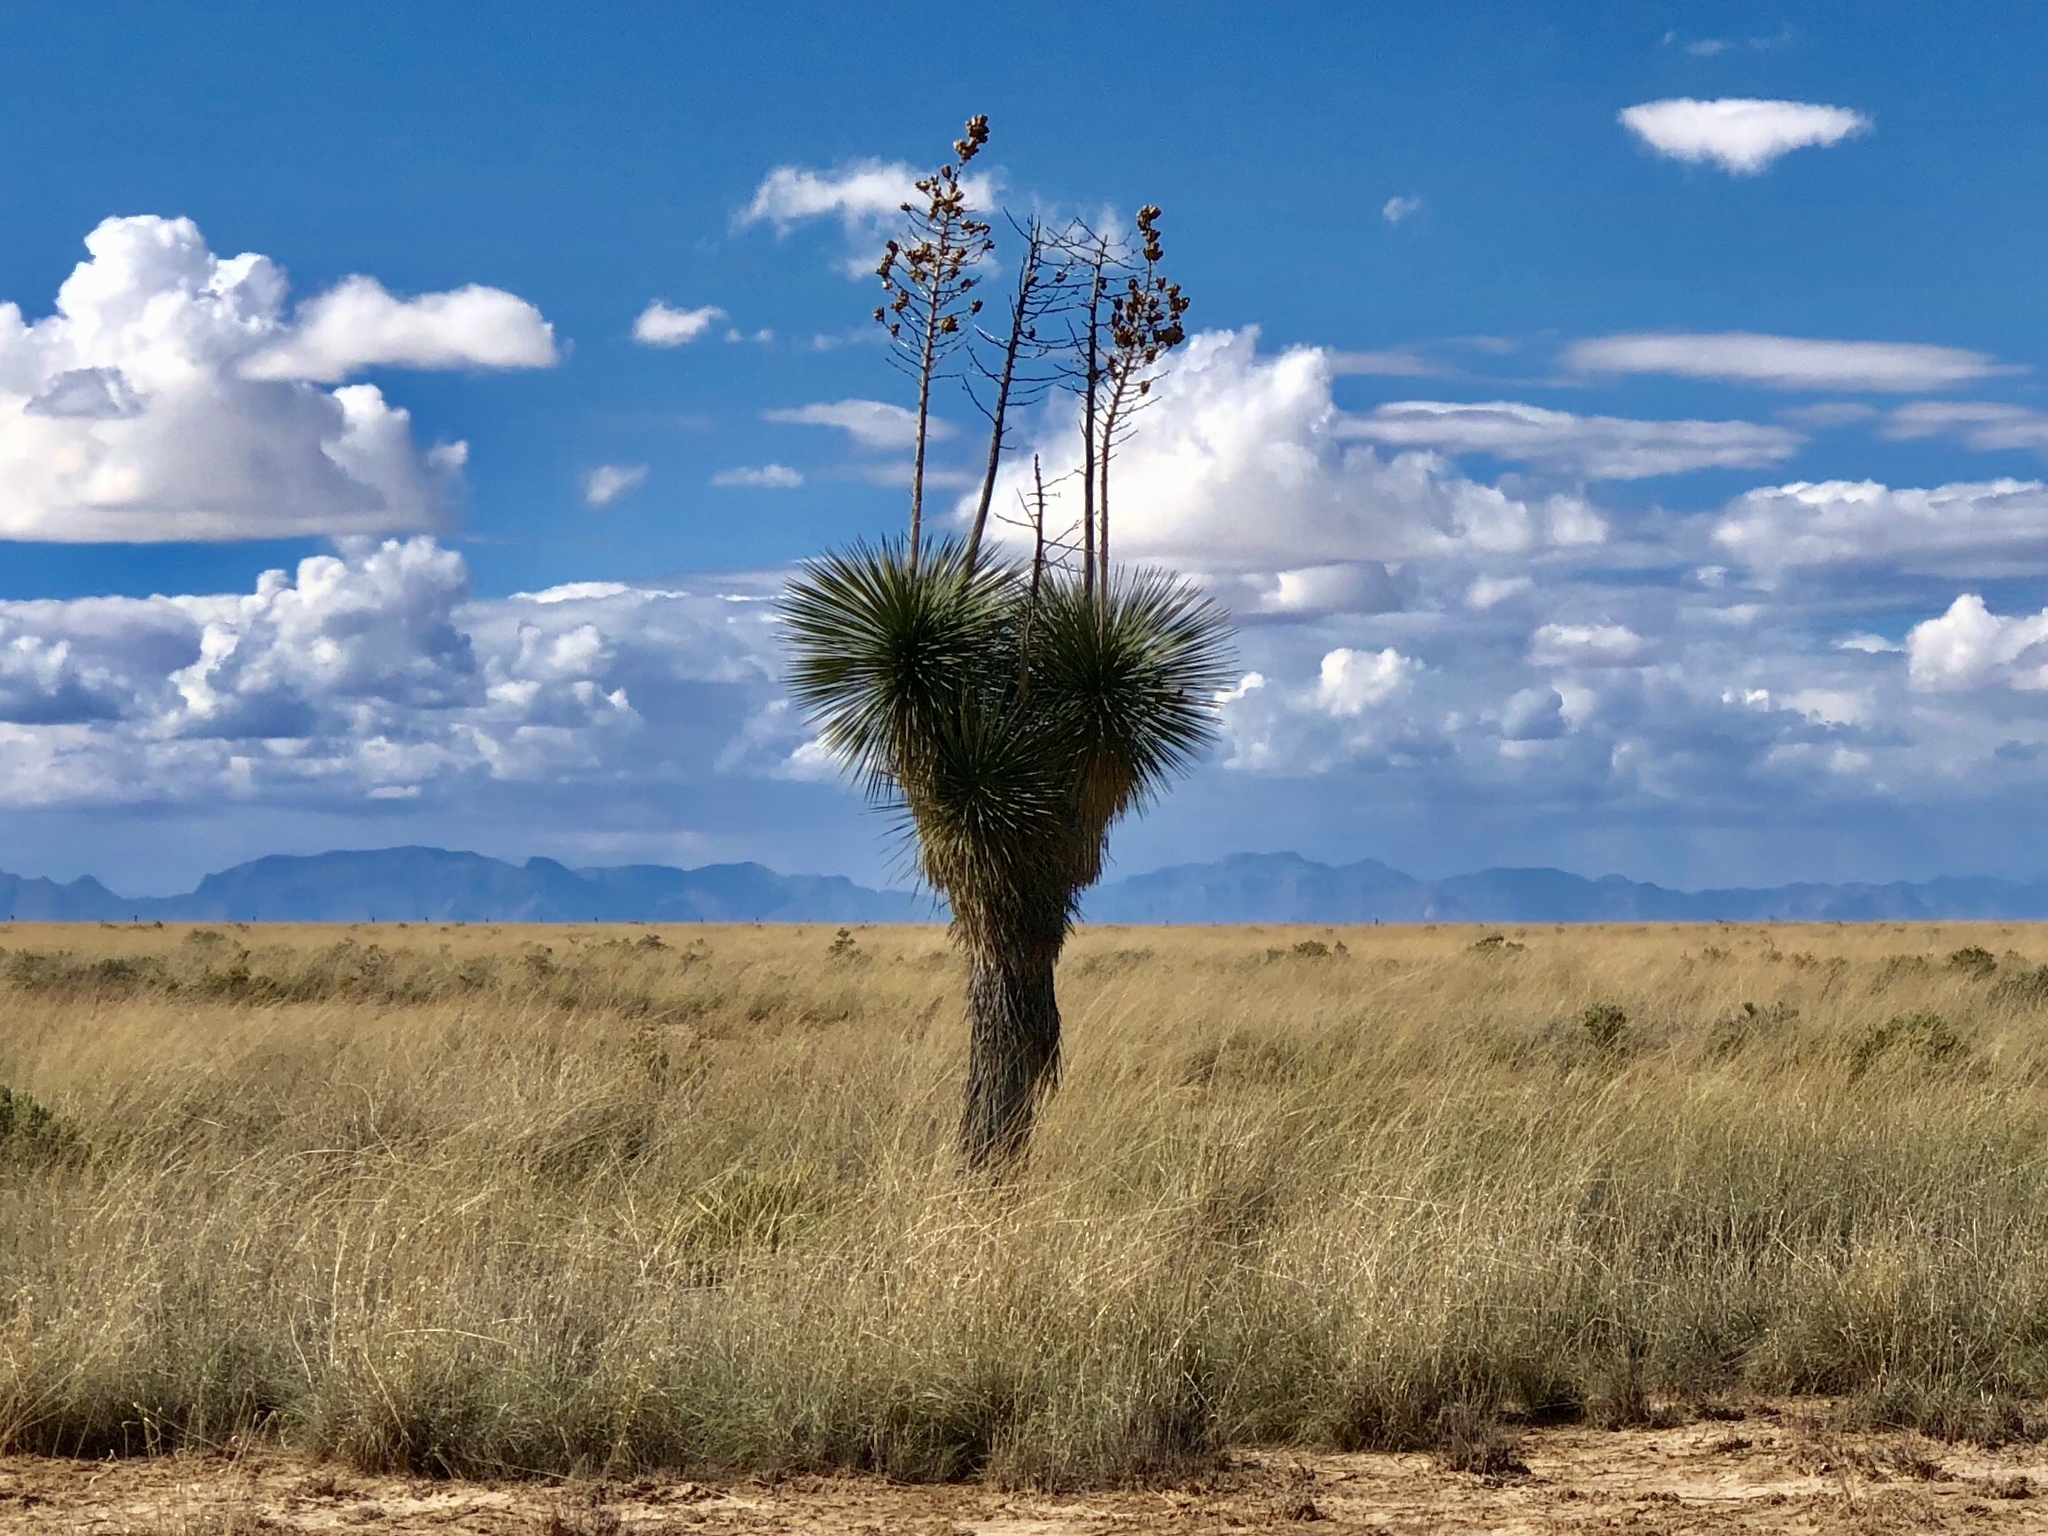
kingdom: Plantae
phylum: Tracheophyta
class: Liliopsida
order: Asparagales
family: Asparagaceae
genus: Yucca
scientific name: Yucca elata
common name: Palmella
